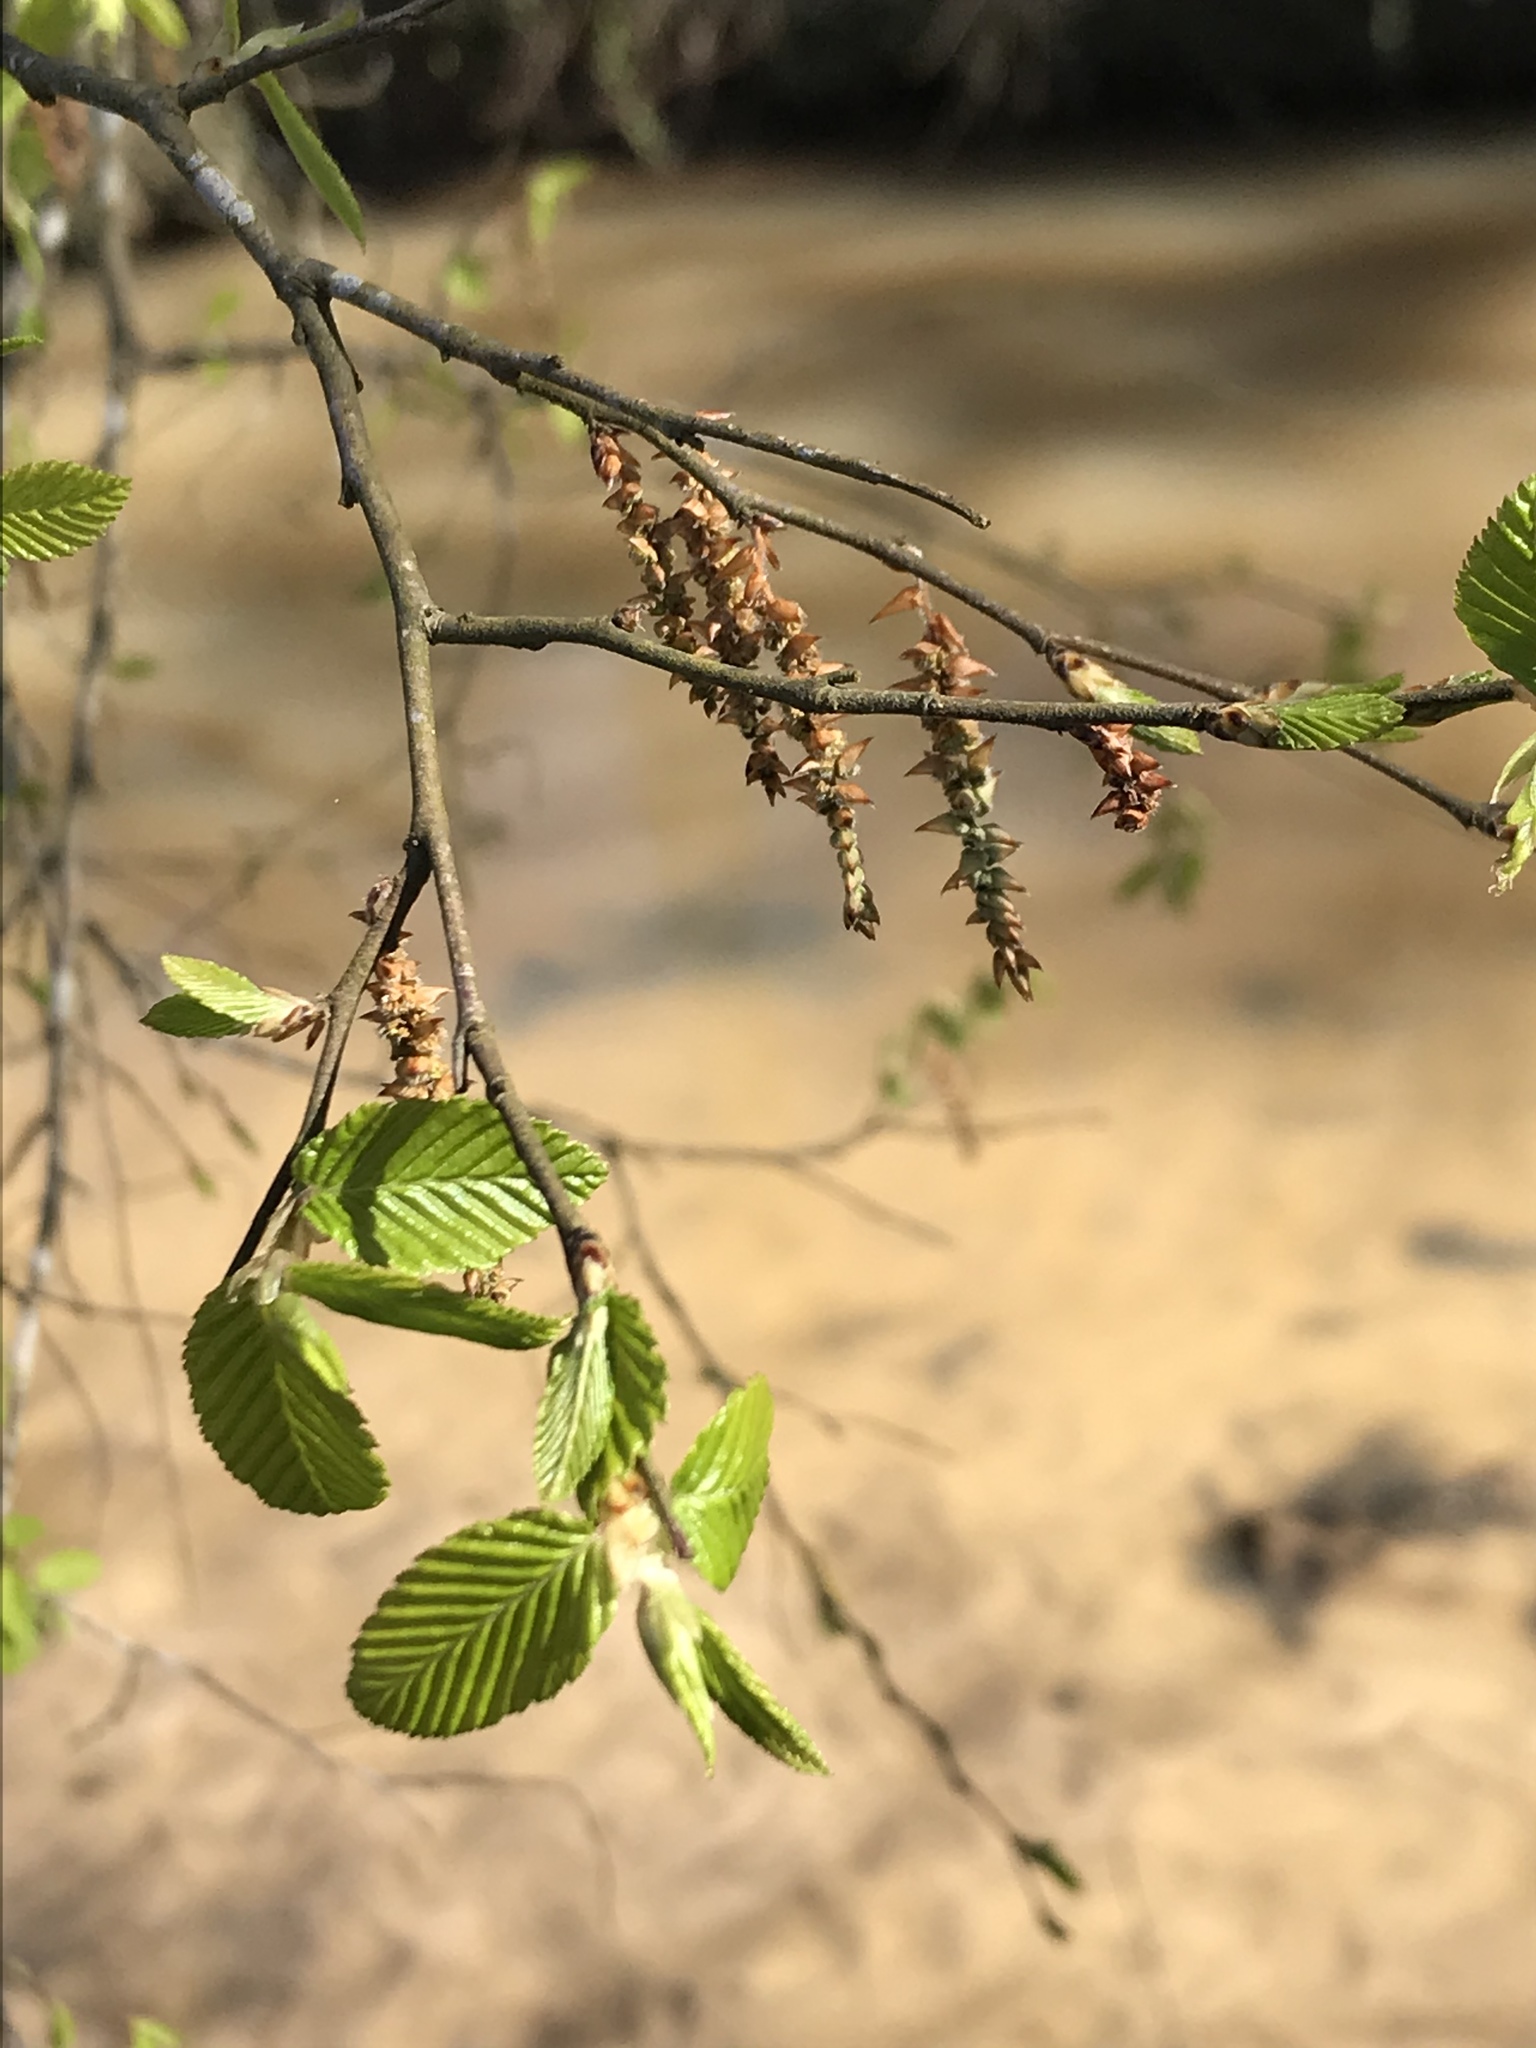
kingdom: Plantae
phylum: Tracheophyta
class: Magnoliopsida
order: Fagales
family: Betulaceae
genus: Carpinus
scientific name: Carpinus caroliniana
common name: American hornbeam
